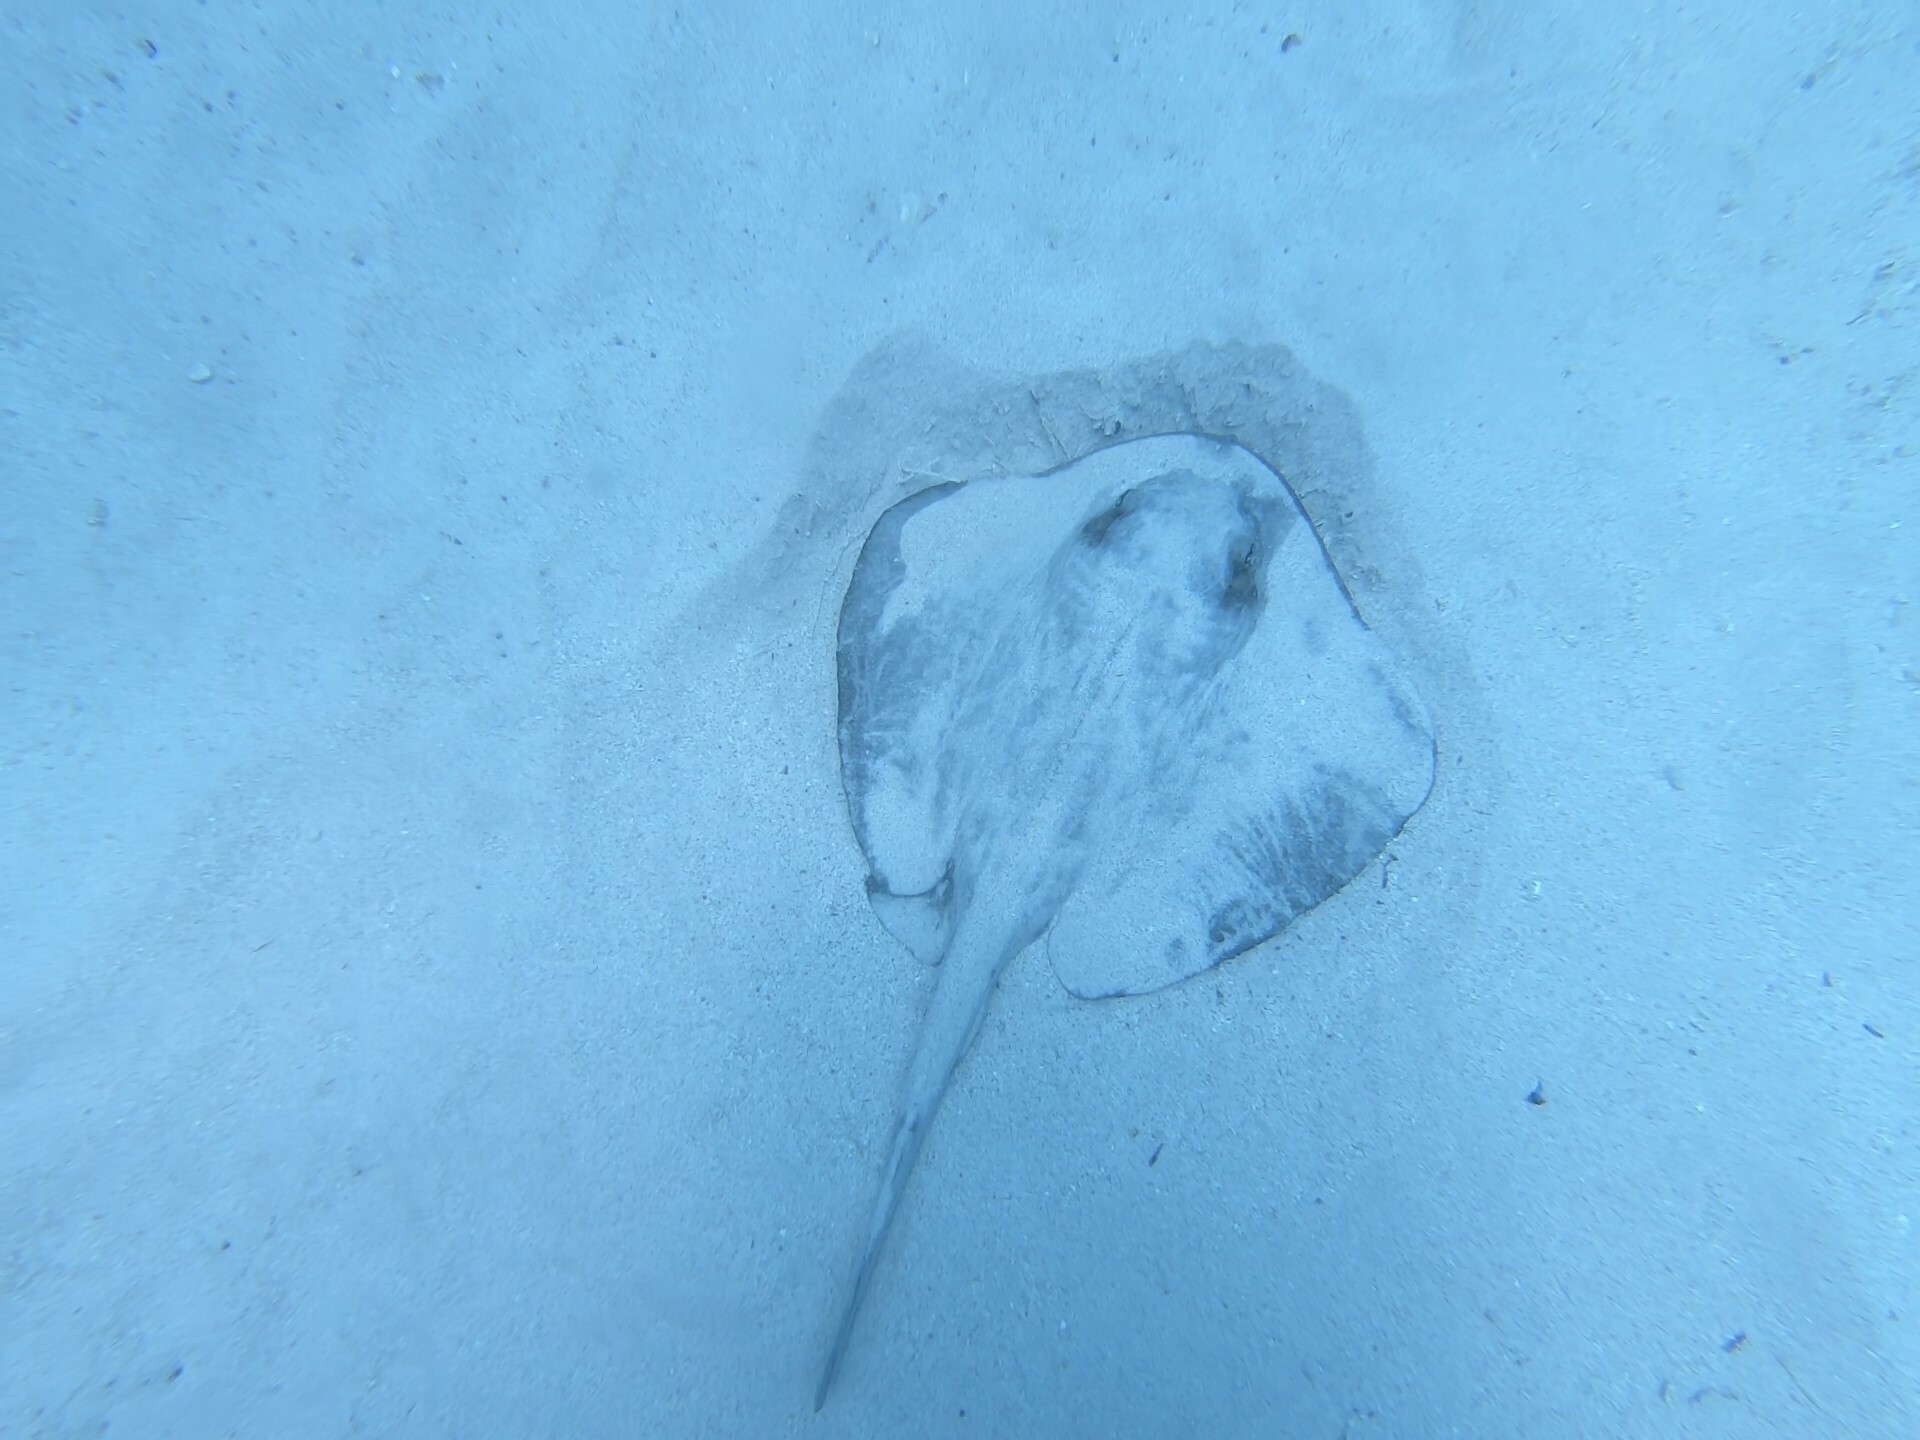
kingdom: Animalia
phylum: Chordata
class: Elasmobranchii
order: Myliobatiformes
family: Dasyatidae
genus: Hypanus
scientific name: Hypanus dipterurus
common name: Diamond stingray
